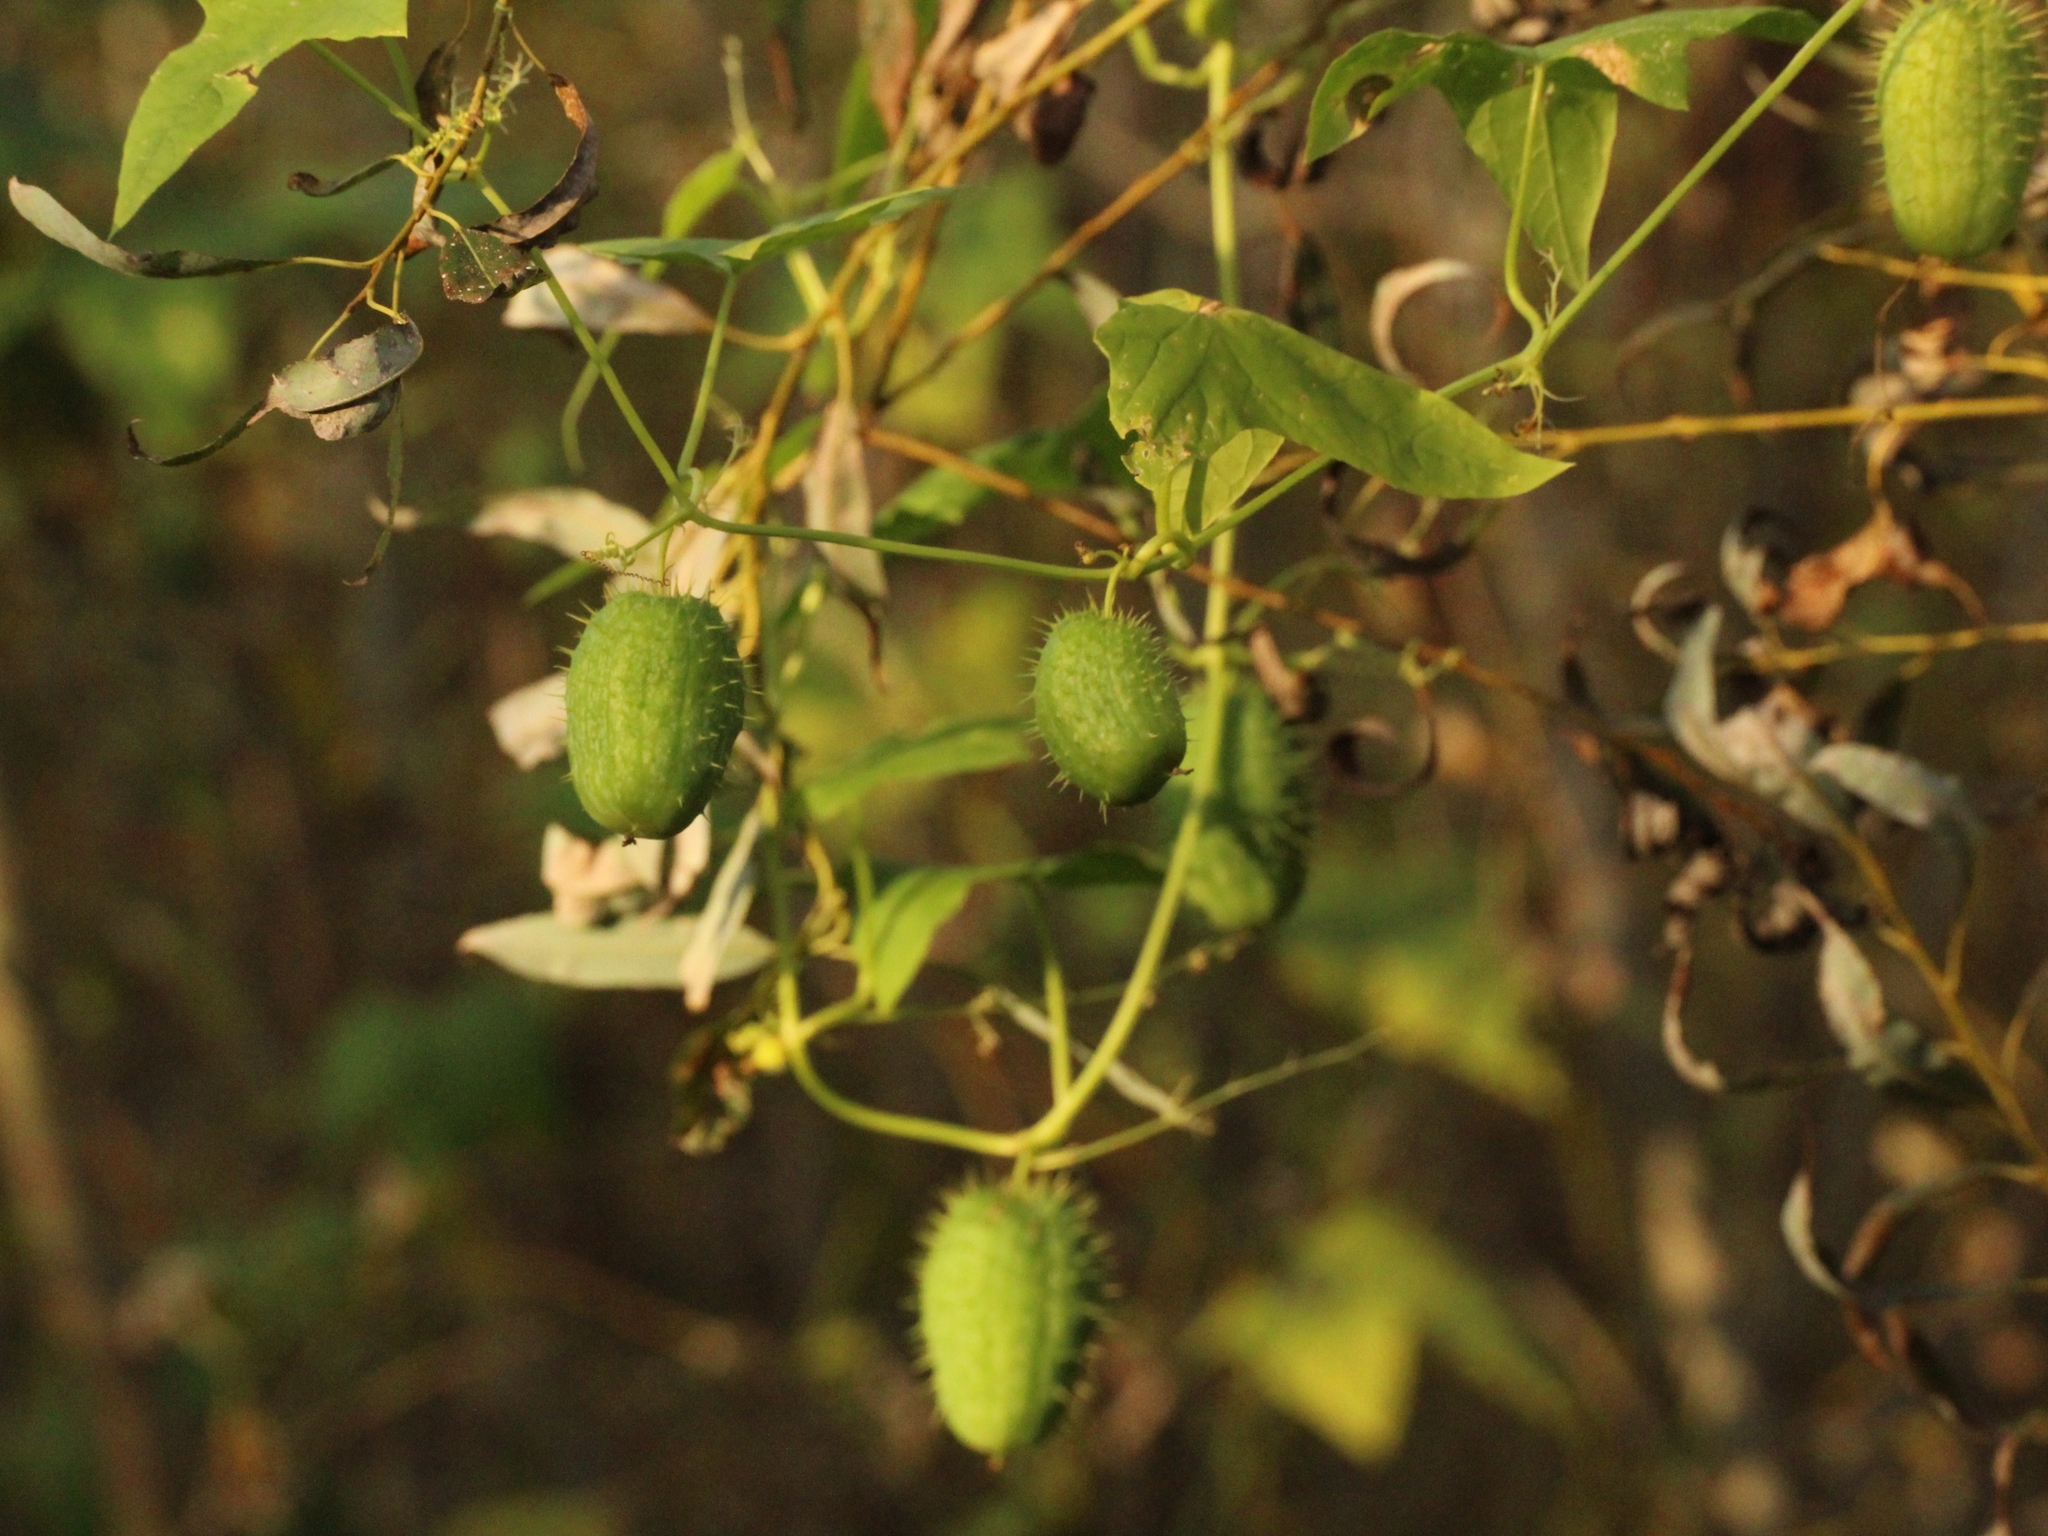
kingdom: Plantae
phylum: Tracheophyta
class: Magnoliopsida
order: Cucurbitales
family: Cucurbitaceae
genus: Echinocystis
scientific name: Echinocystis lobata
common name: Wild cucumber
